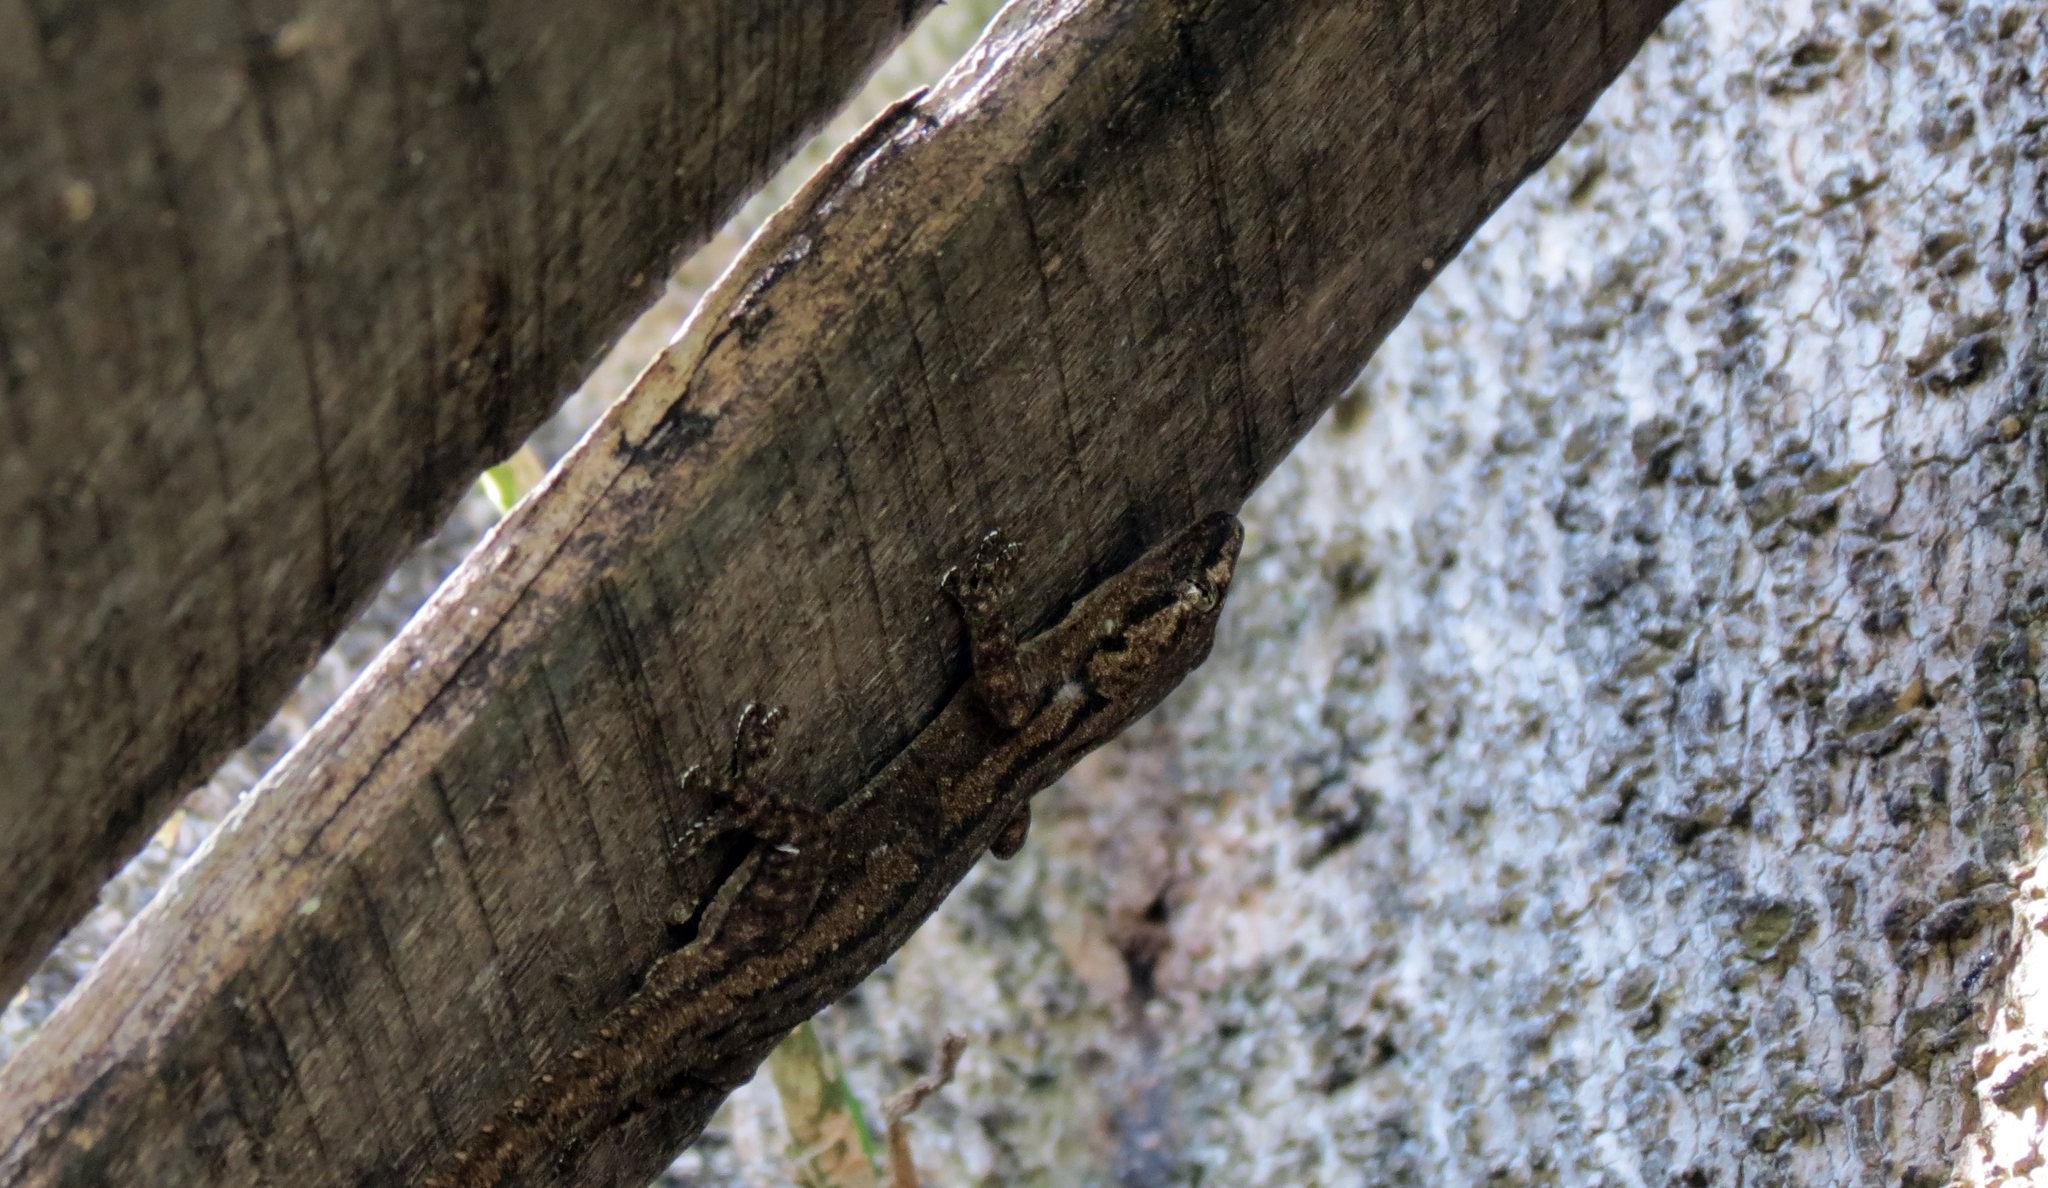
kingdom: Animalia
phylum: Chordata
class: Squamata
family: Gekkonidae
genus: Hemidactylus
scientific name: Hemidactylus frenatus
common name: Common house gecko
